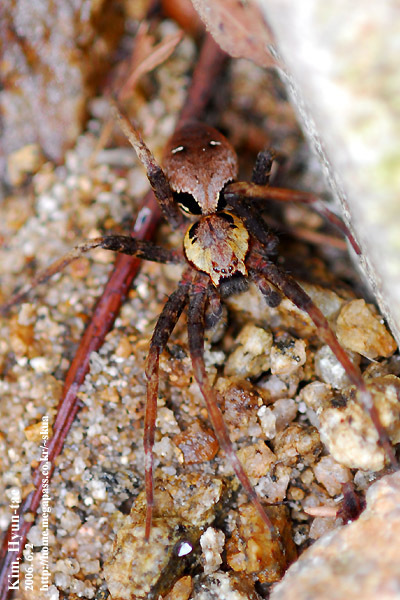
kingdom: Animalia
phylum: Arthropoda
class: Arachnida
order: Araneae
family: Pisauridae
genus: Dolomedes
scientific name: Dolomedes nigrimaculatus
